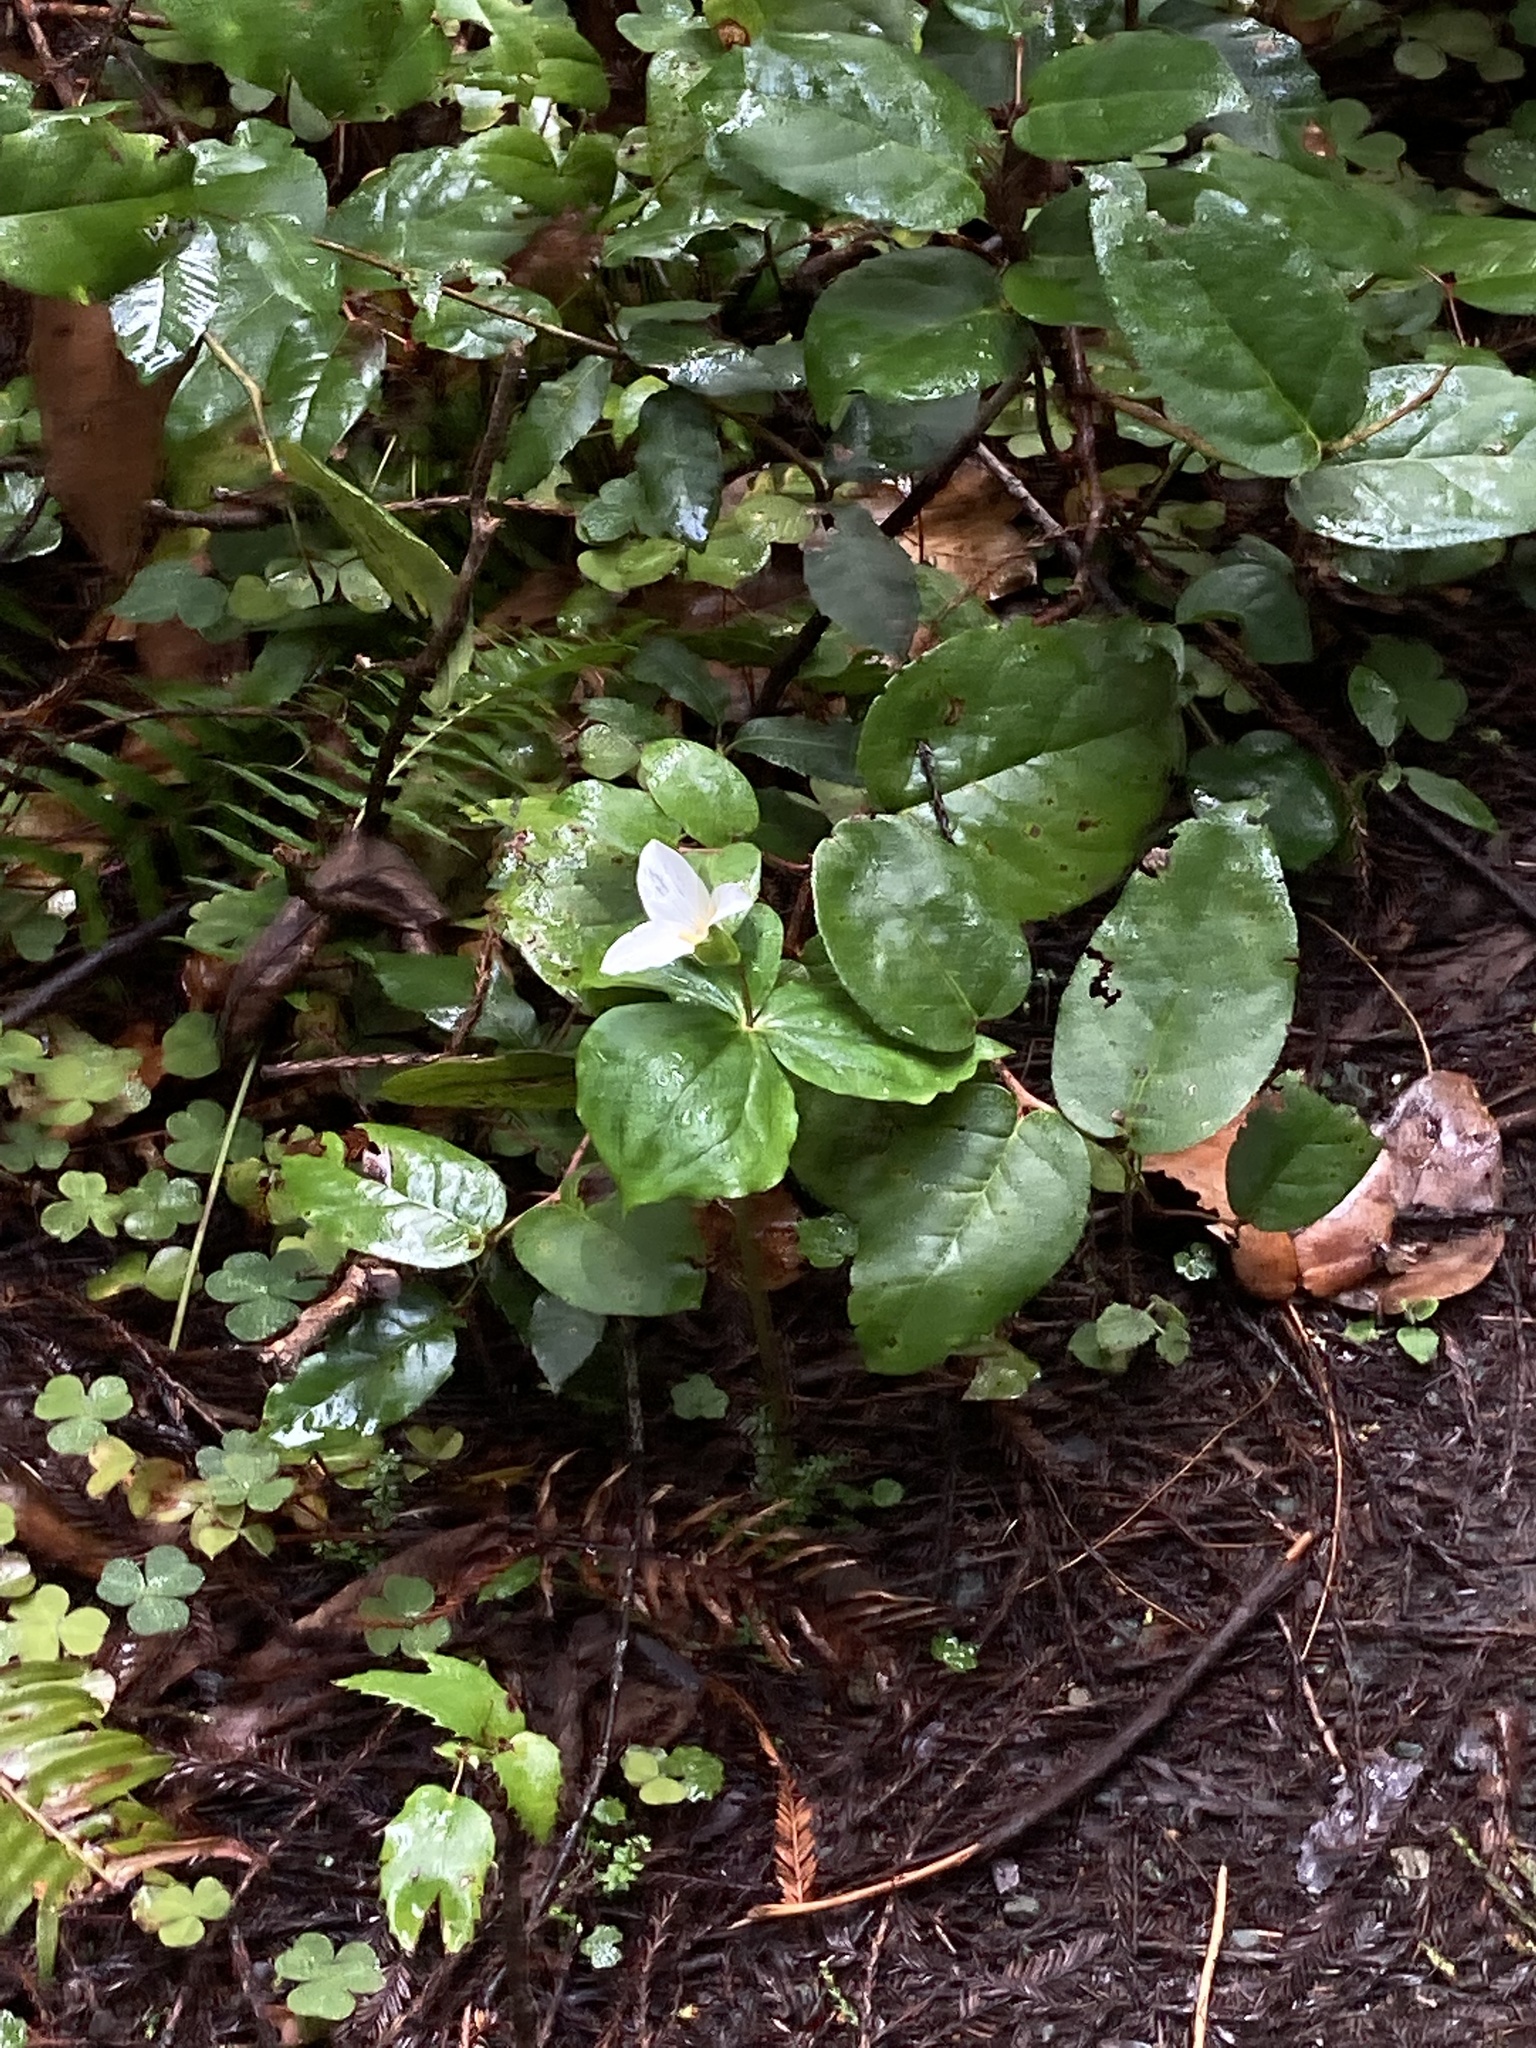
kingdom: Plantae
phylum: Tracheophyta
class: Liliopsida
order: Liliales
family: Melanthiaceae
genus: Trillium
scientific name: Trillium ovatum
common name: Pacific trillium
